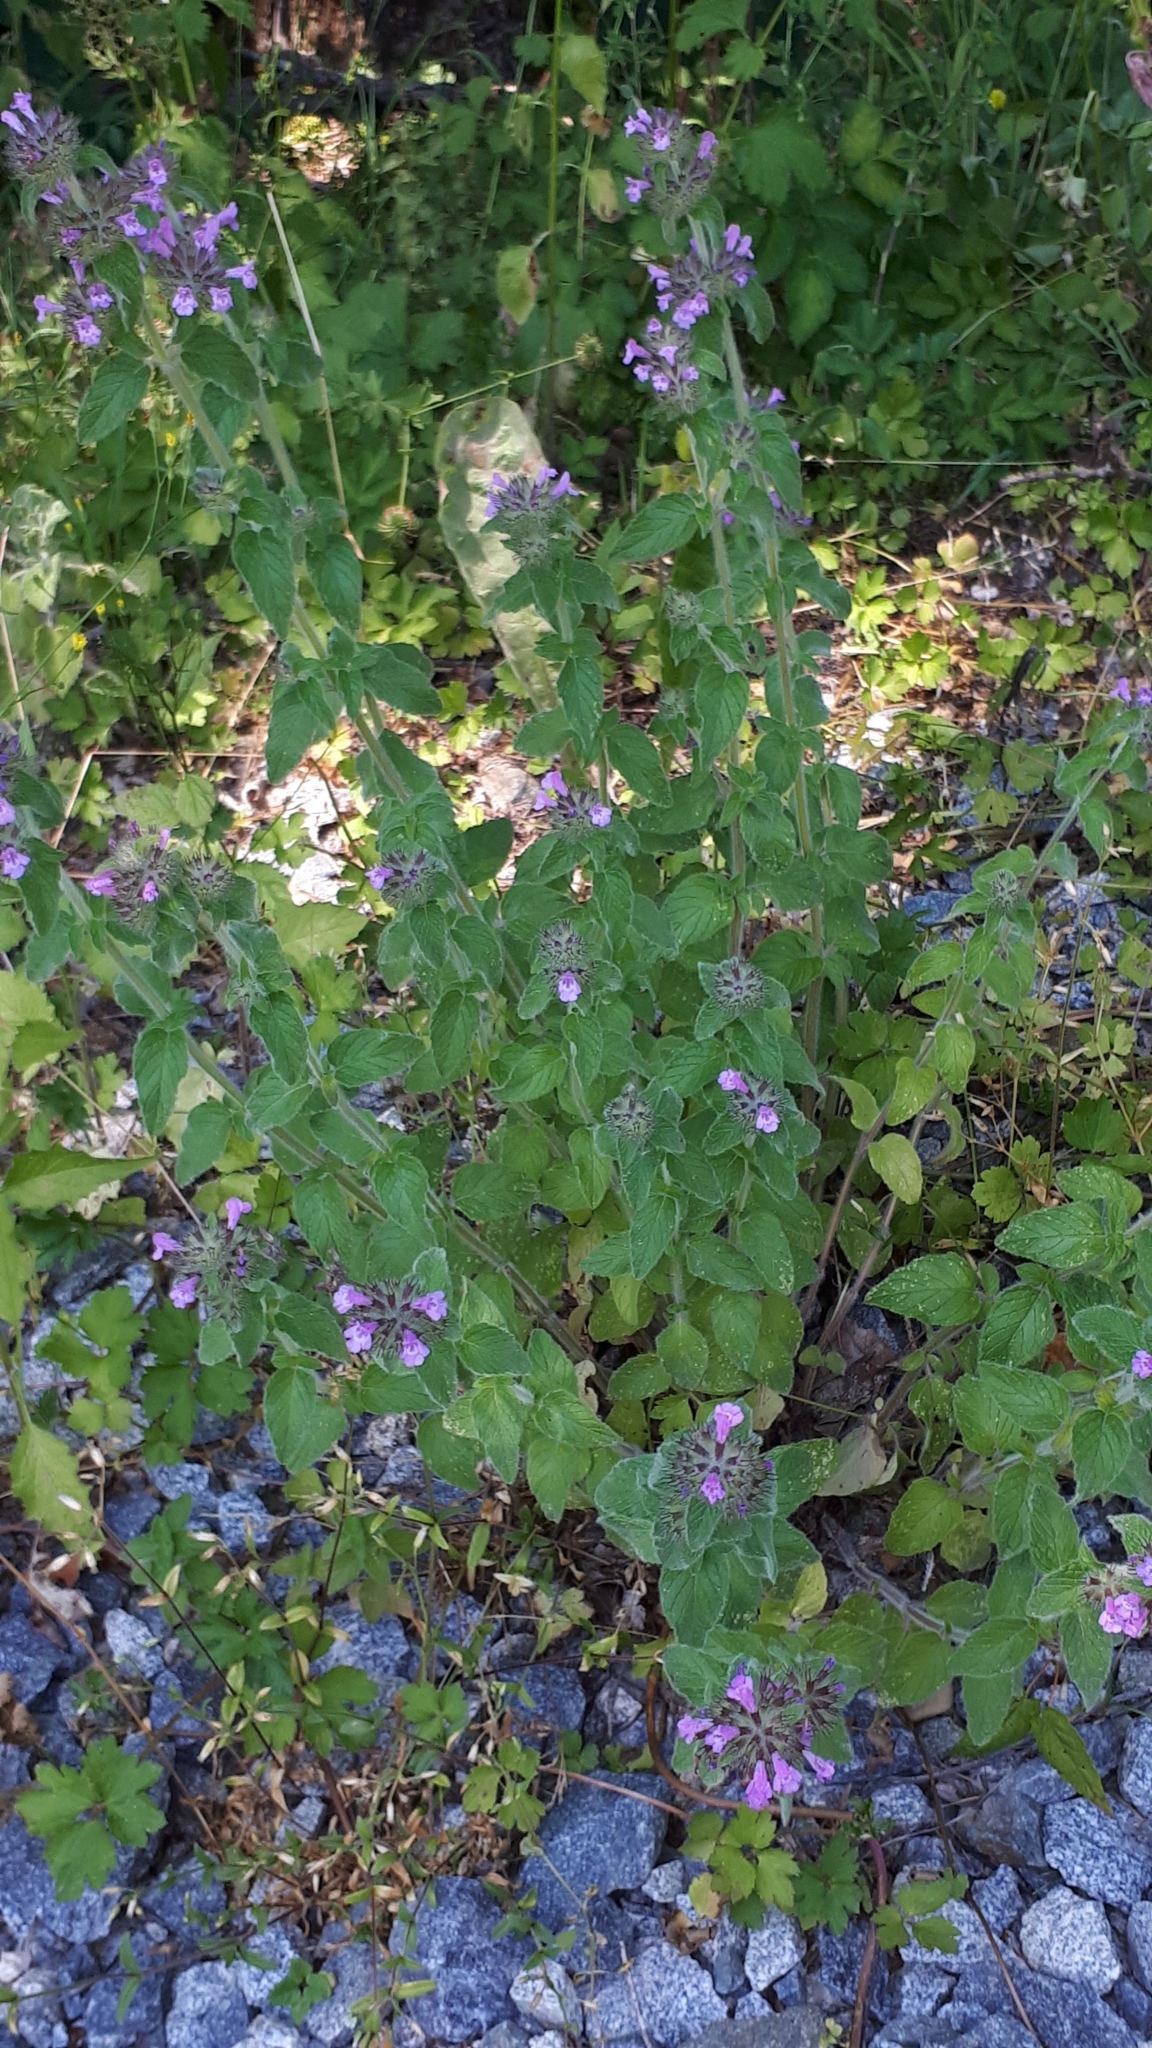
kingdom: Plantae
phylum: Tracheophyta
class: Magnoliopsida
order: Lamiales
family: Lamiaceae
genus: Clinopodium
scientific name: Clinopodium vulgare
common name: Wild basil
